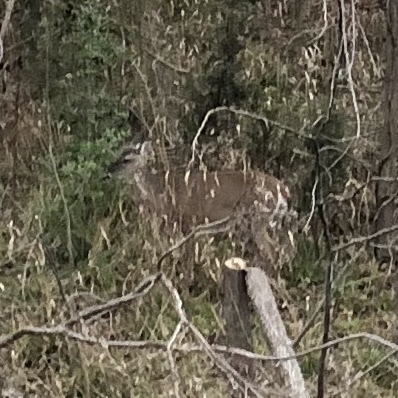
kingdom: Animalia
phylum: Chordata
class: Mammalia
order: Artiodactyla
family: Cervidae
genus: Odocoileus
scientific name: Odocoileus virginianus
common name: White-tailed deer
